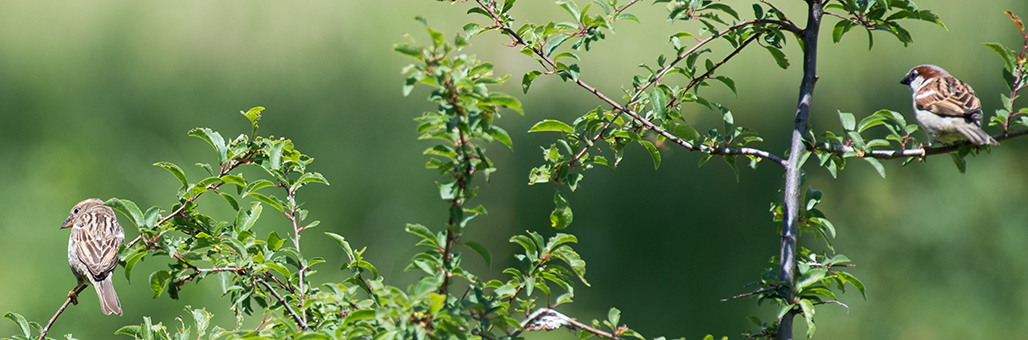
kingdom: Animalia
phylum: Chordata
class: Aves
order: Passeriformes
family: Passeridae
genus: Passer
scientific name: Passer domesticus
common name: House sparrow
